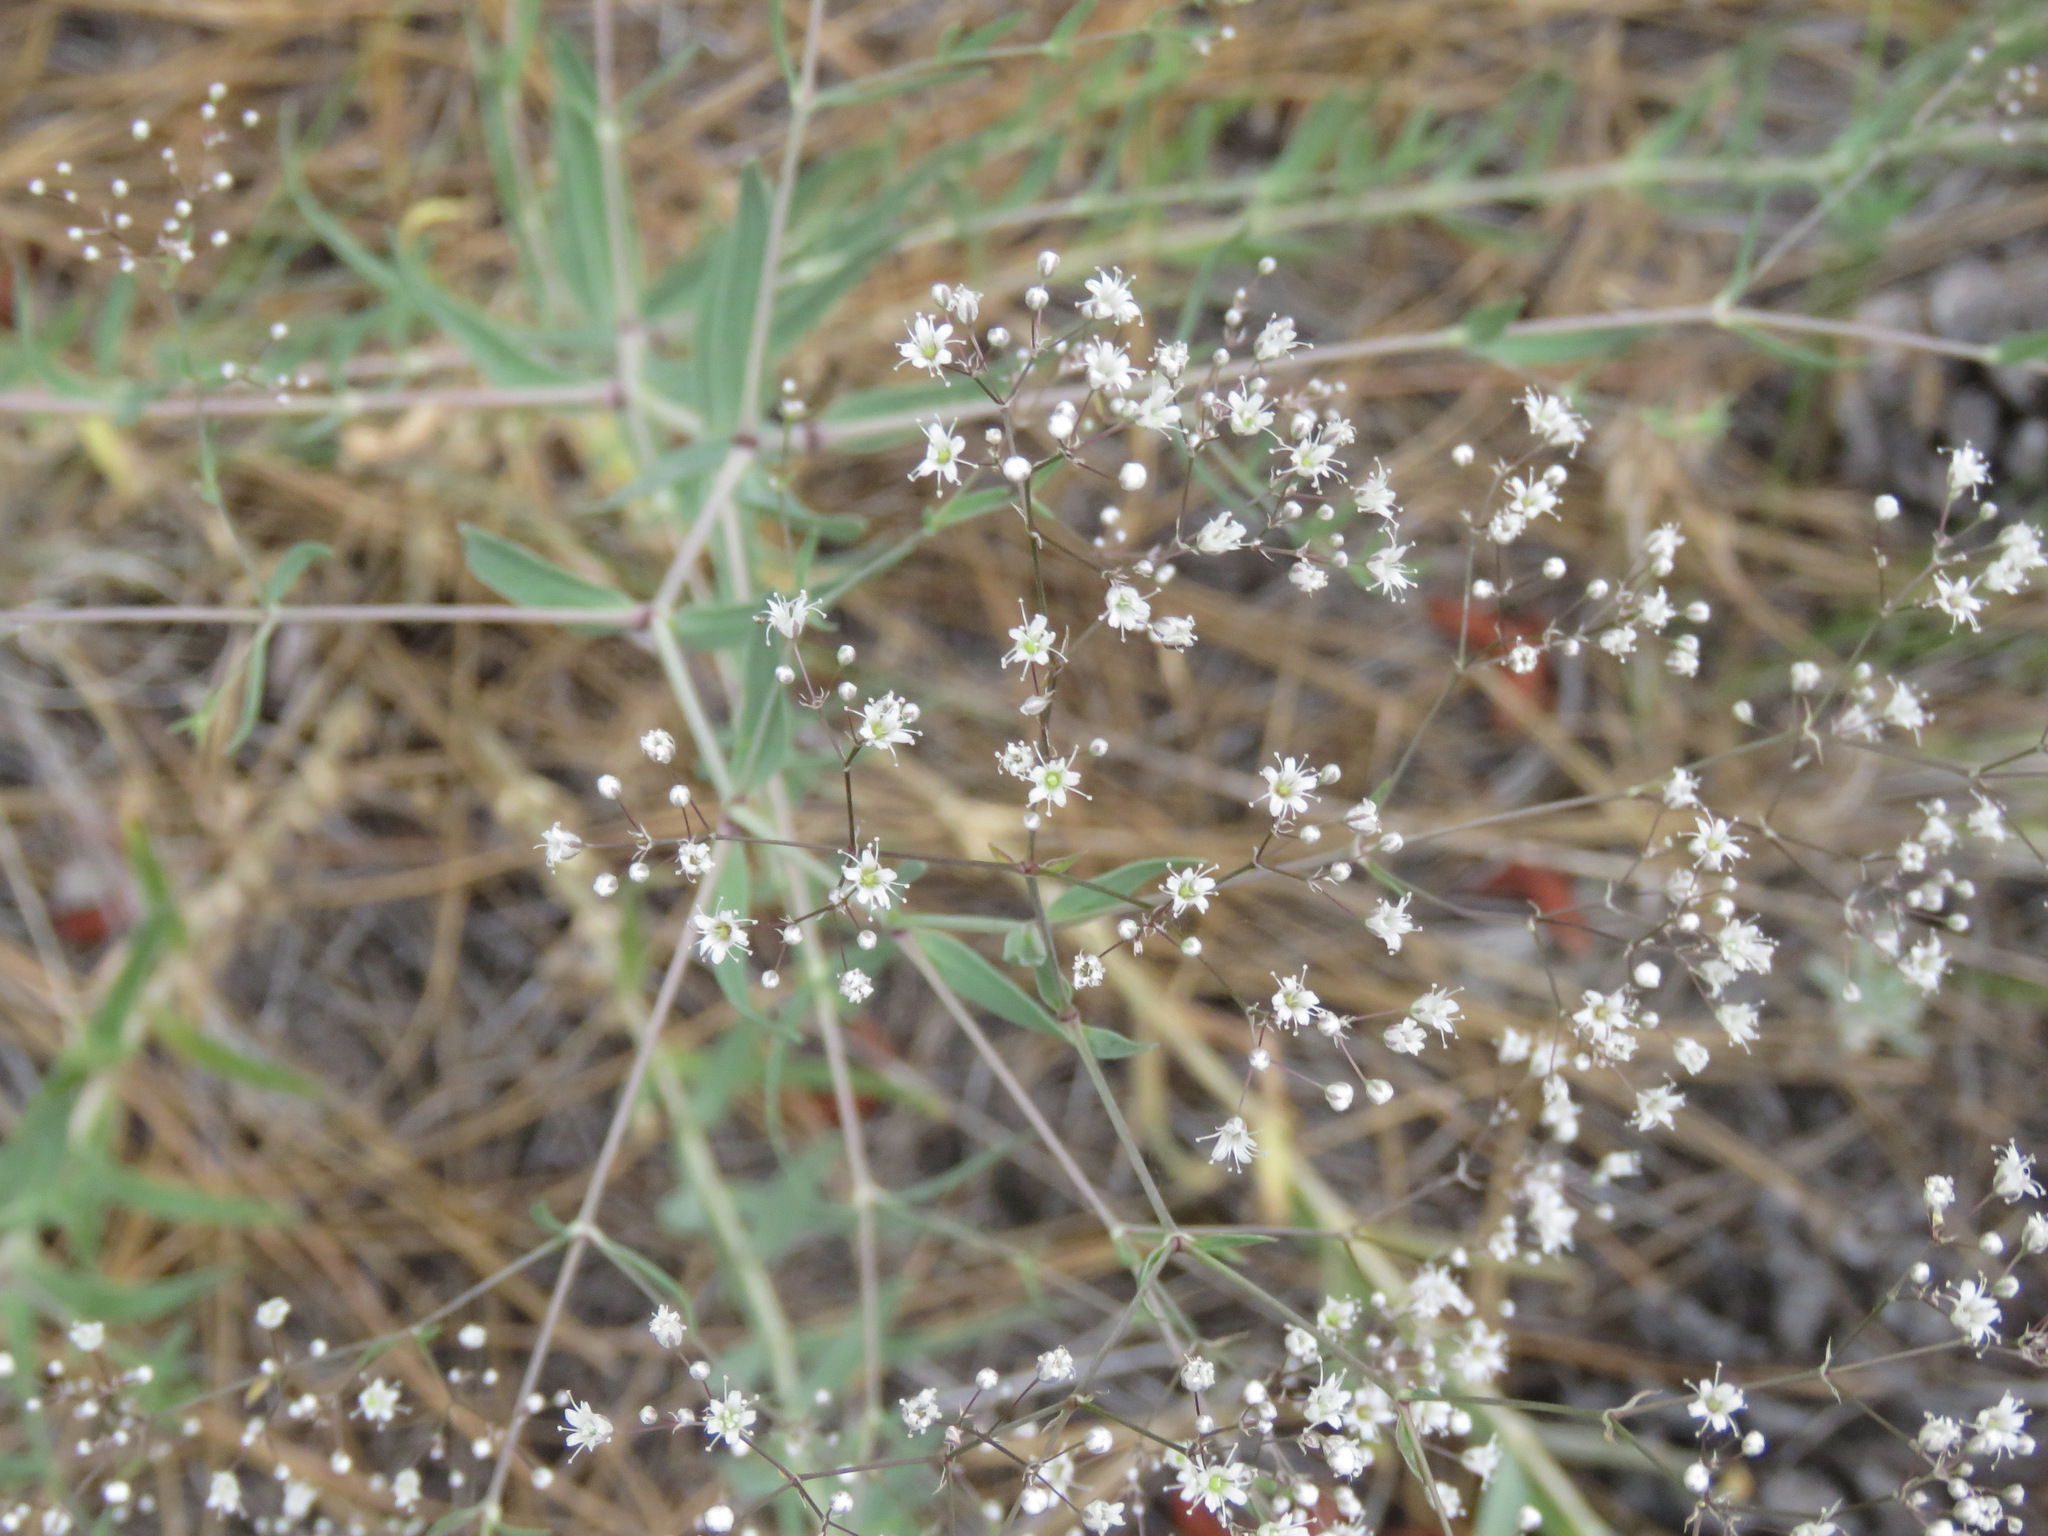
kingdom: Plantae
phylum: Tracheophyta
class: Magnoliopsida
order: Caryophyllales
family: Caryophyllaceae
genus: Gypsophila
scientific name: Gypsophila paniculata
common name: Baby's-breath
